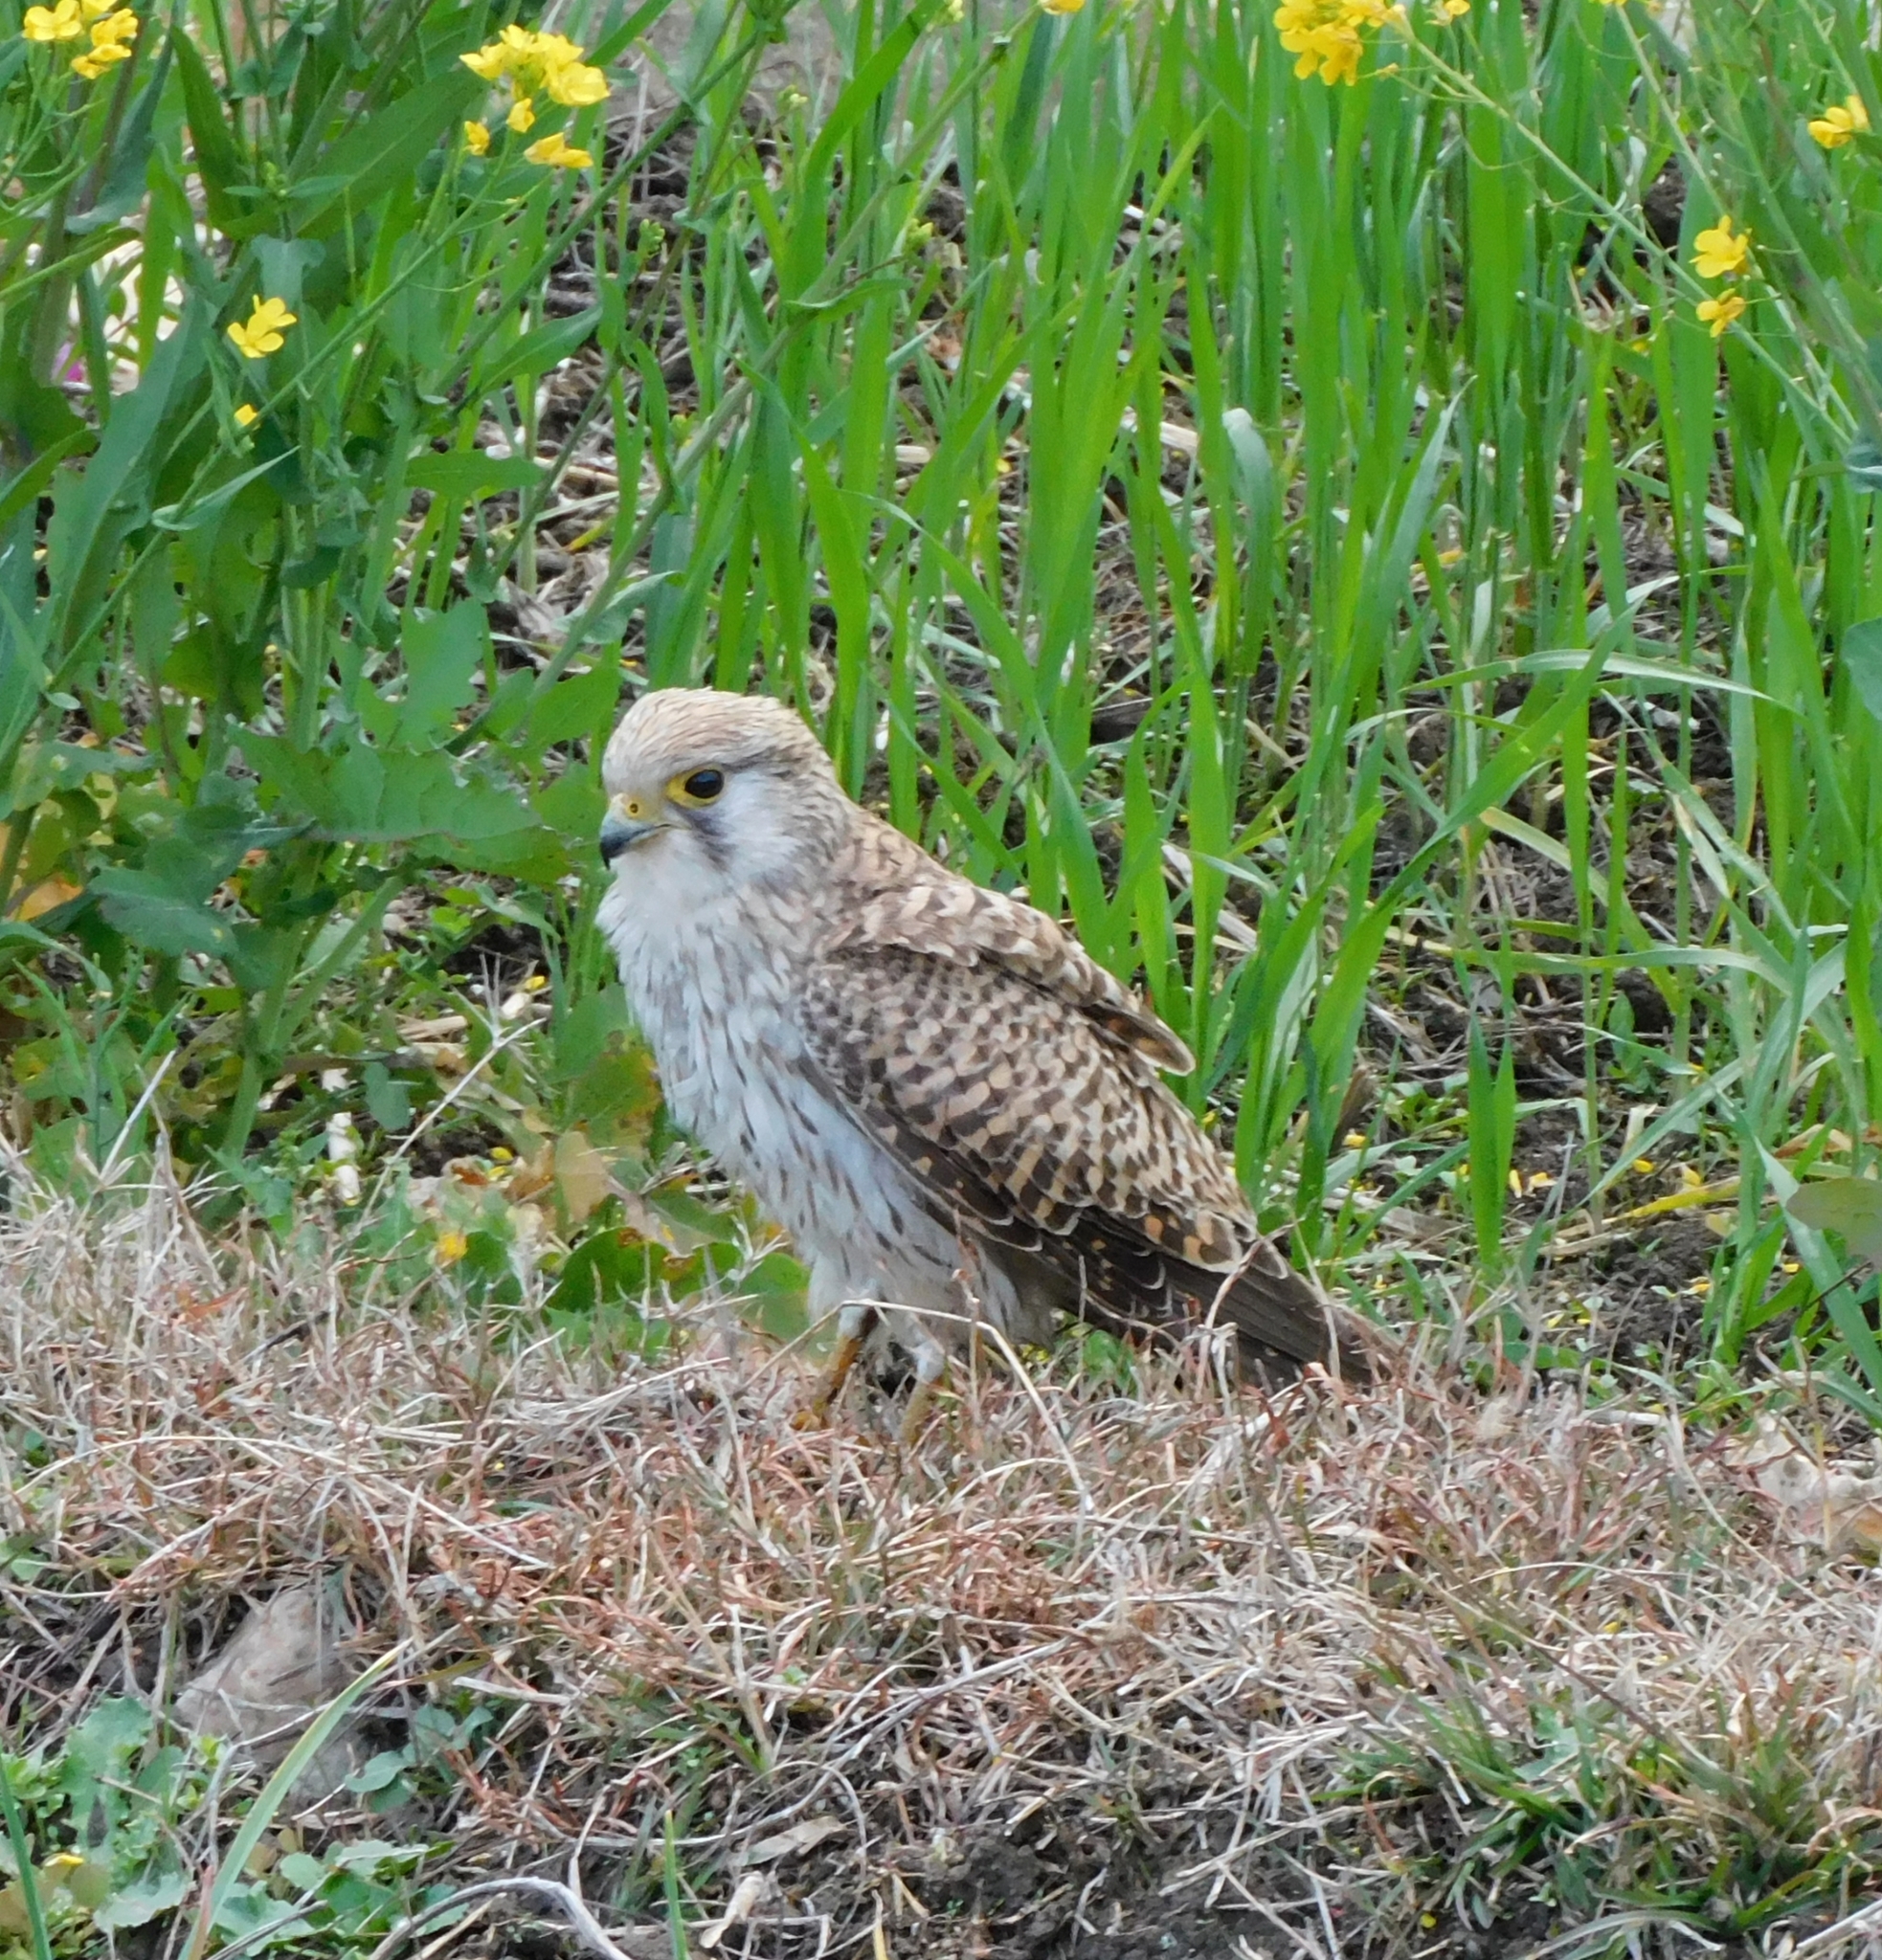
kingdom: Animalia
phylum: Chordata
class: Aves
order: Falconiformes
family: Falconidae
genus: Falco
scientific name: Falco tinnunculus
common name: Common kestrel
